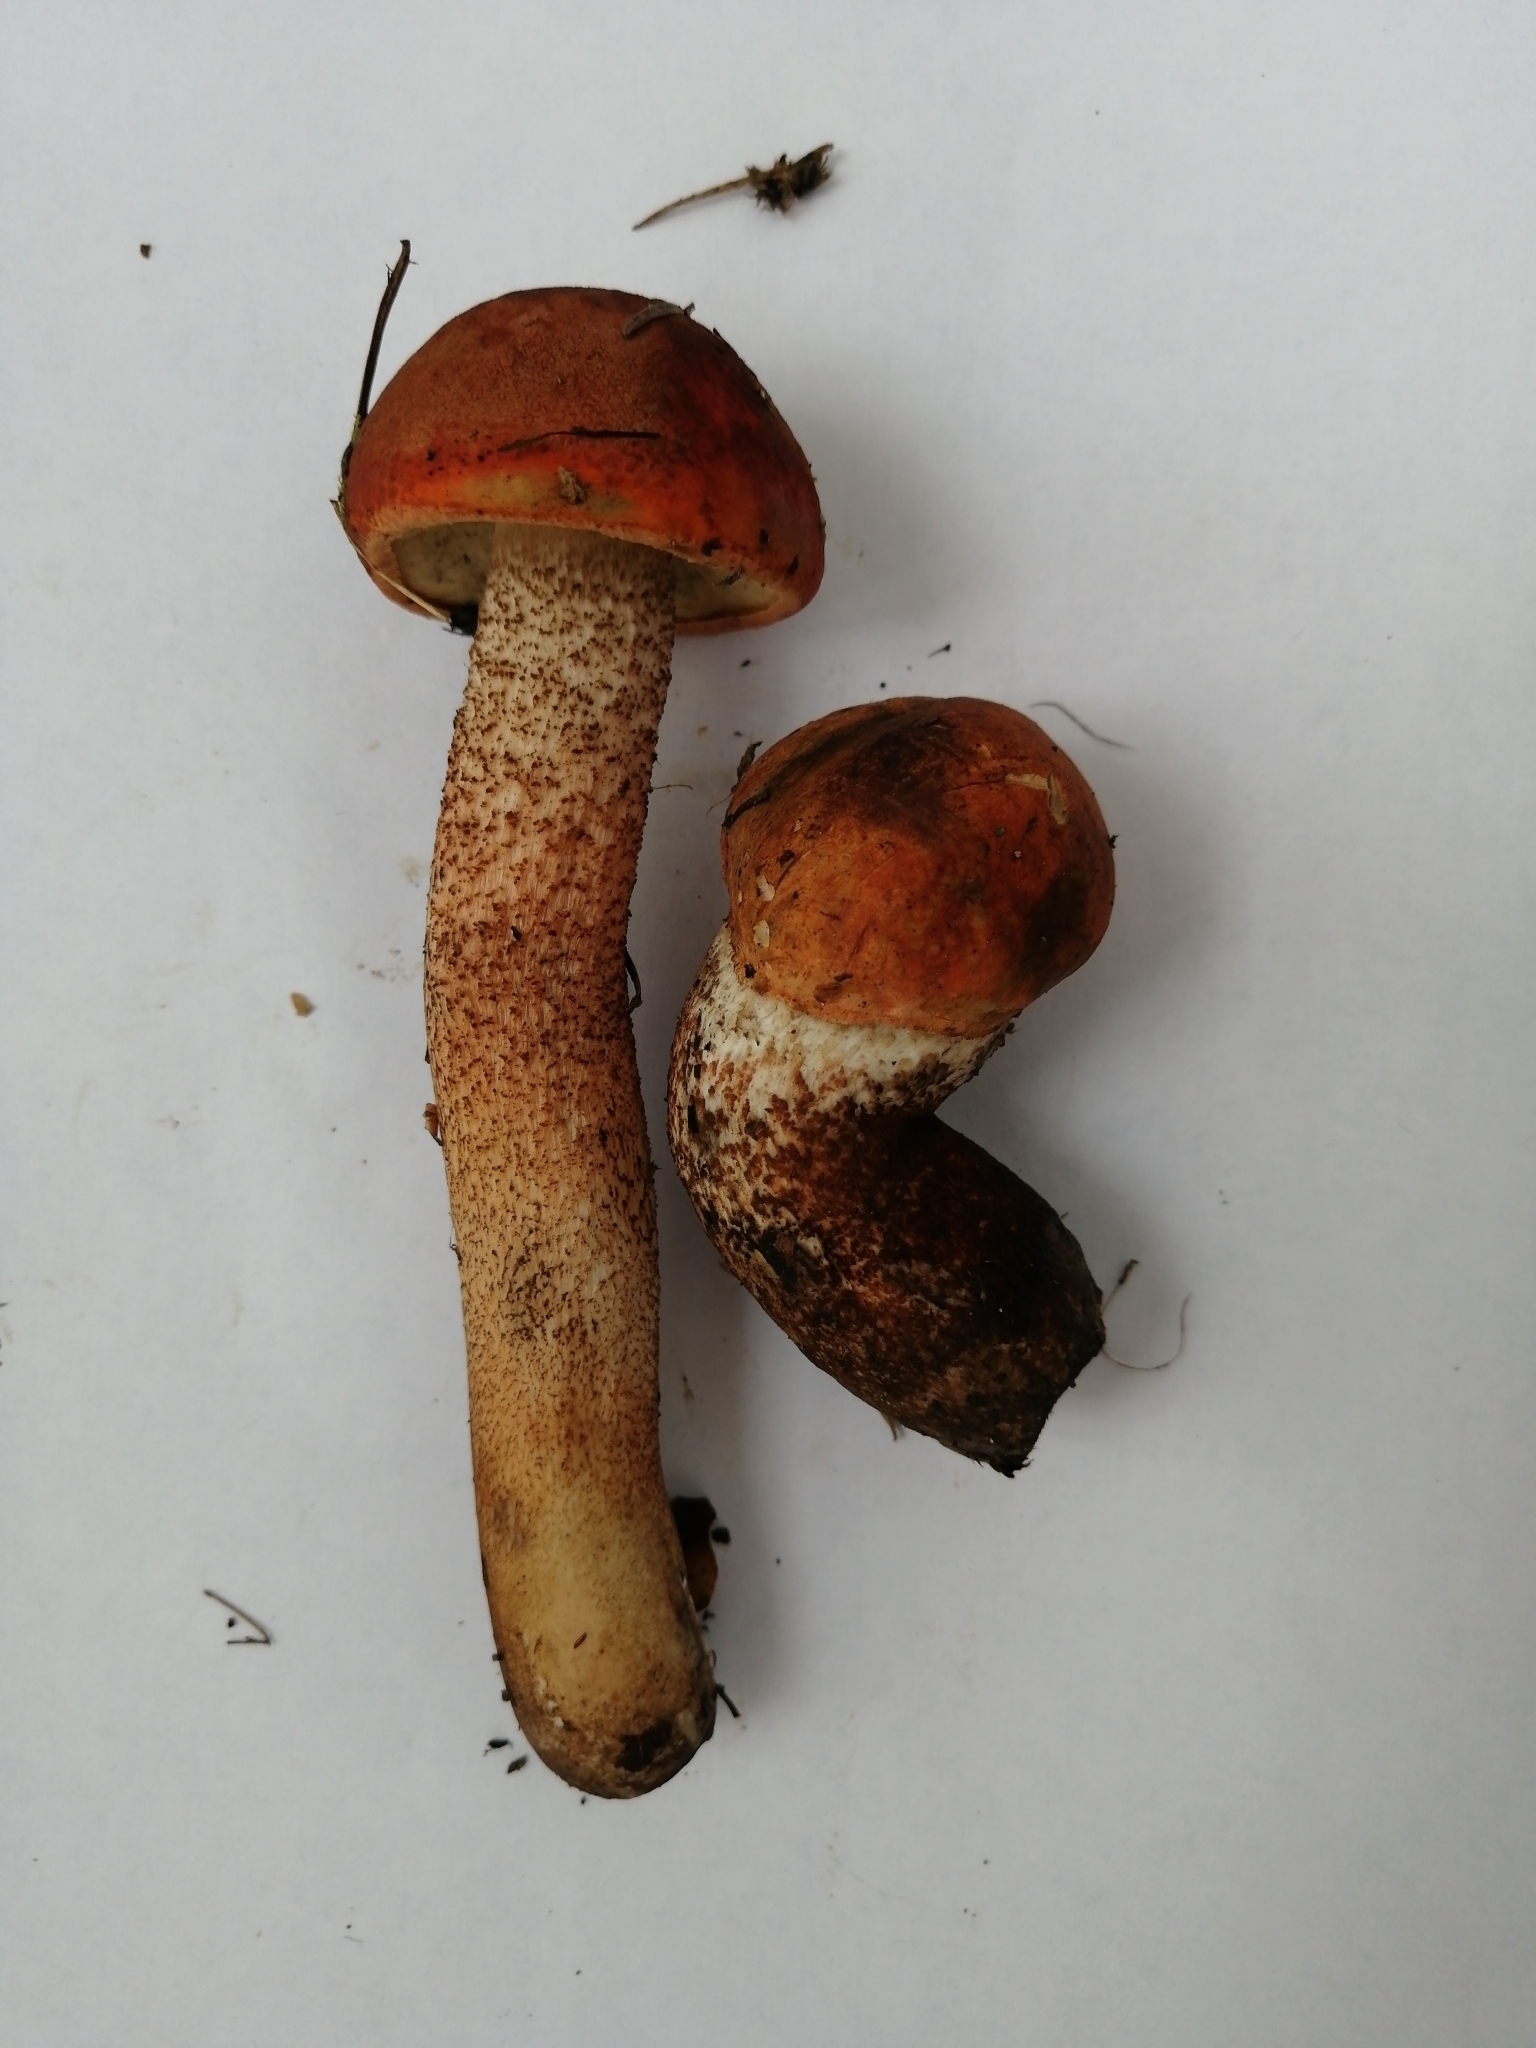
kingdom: Fungi
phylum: Basidiomycota
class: Agaricomycetes
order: Boletales
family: Boletaceae
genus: Leccinum
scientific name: Leccinum aurantiacum
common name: Orange bolete
